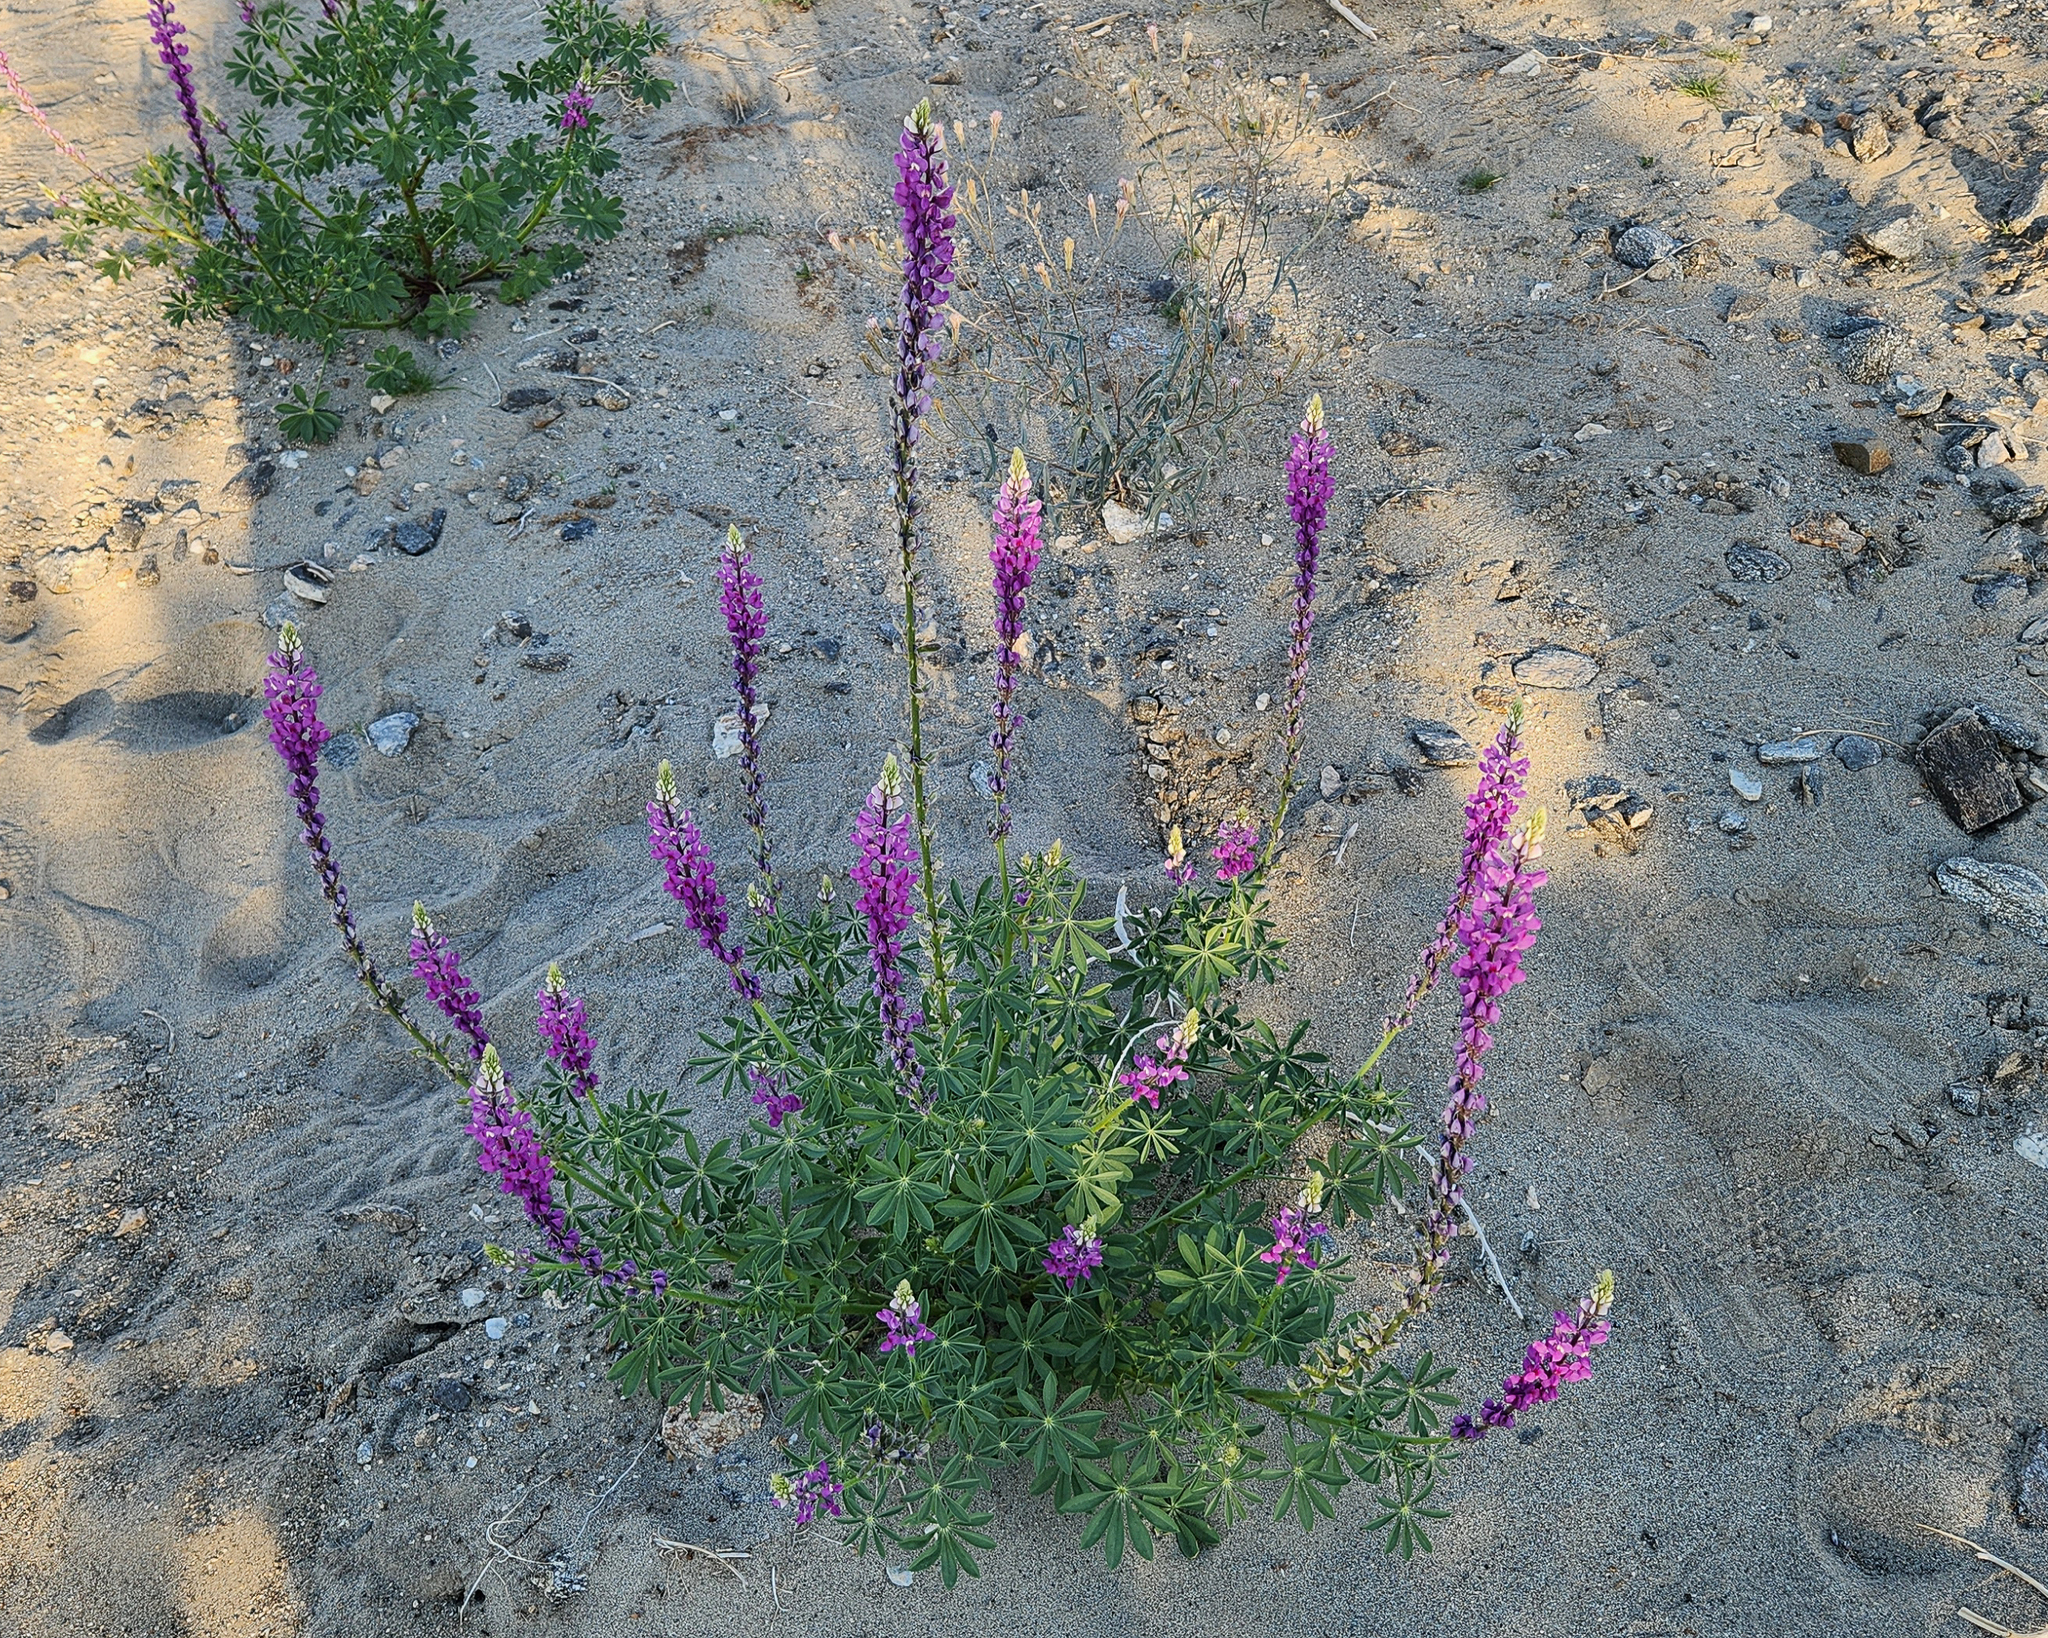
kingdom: Plantae
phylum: Tracheophyta
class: Magnoliopsida
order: Fabales
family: Fabaceae
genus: Lupinus
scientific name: Lupinus arizonicus
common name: Arizona lupine
